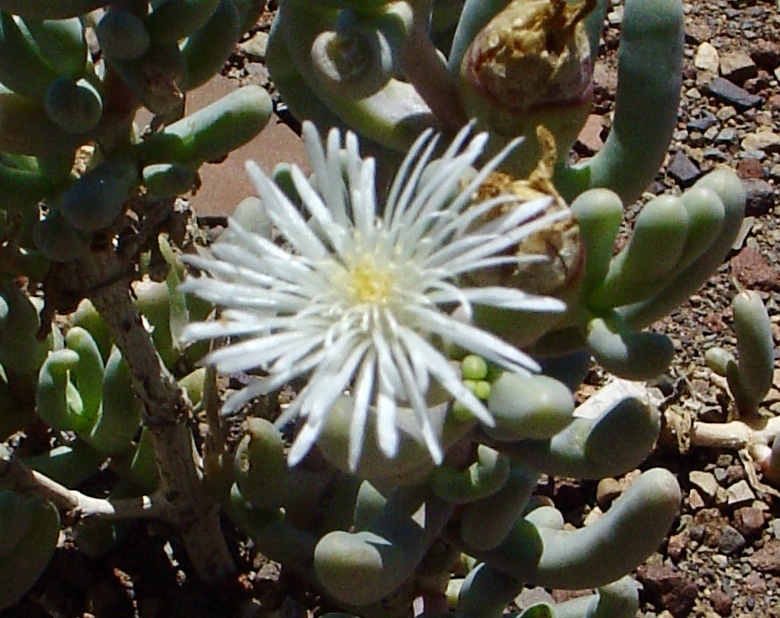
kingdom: Plantae
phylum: Tracheophyta
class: Magnoliopsida
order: Caryophyllales
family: Aizoaceae
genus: Mesembryanthemum
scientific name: Mesembryanthemum tetragonum
